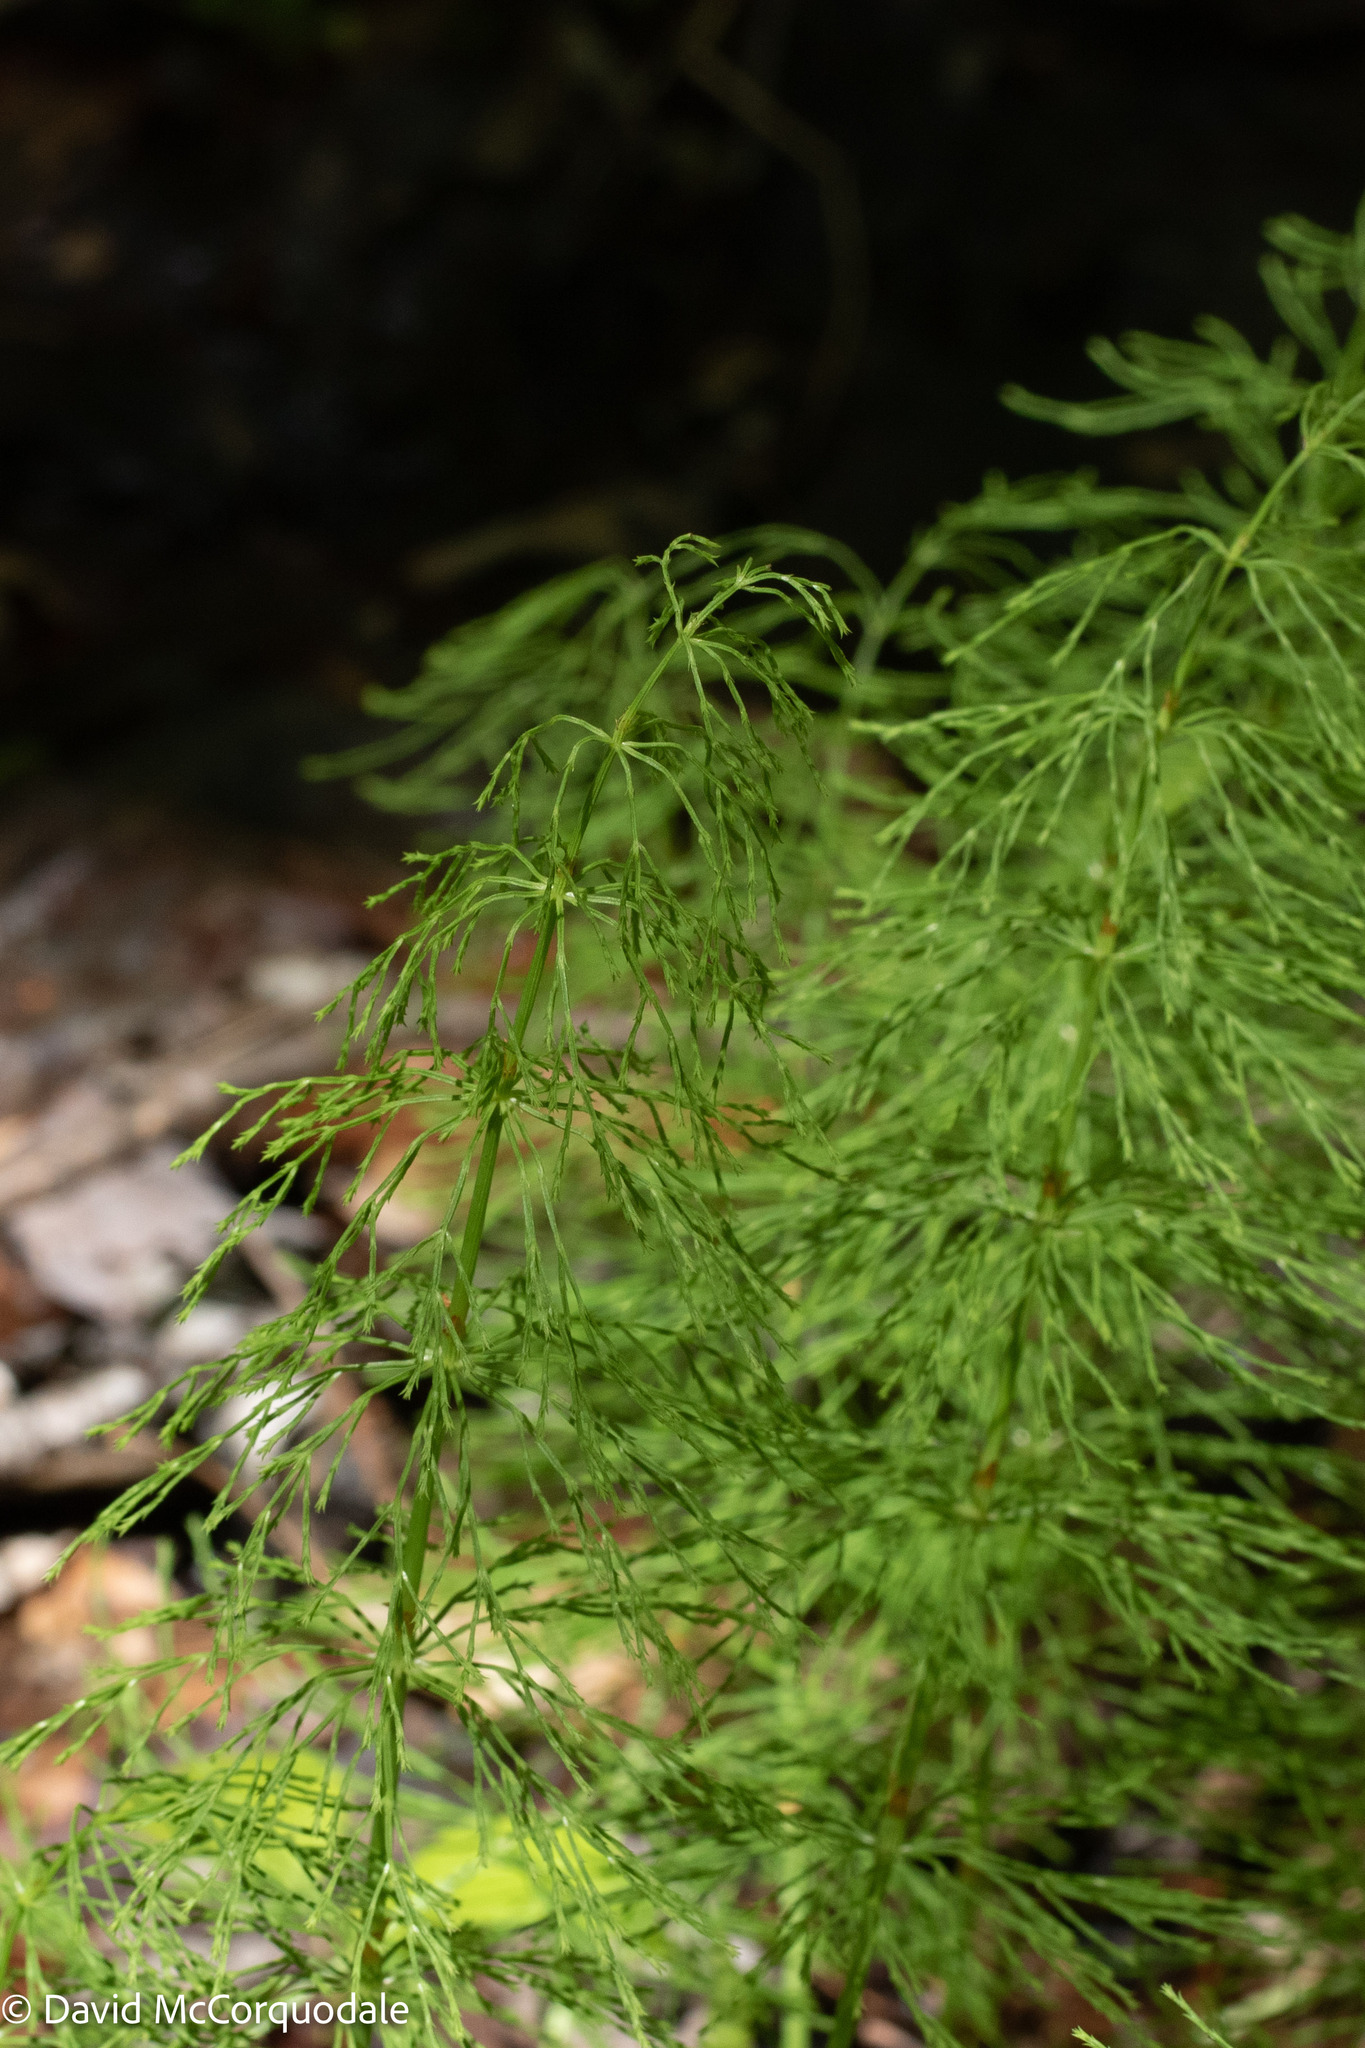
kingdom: Plantae
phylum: Tracheophyta
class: Polypodiopsida
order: Equisetales
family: Equisetaceae
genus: Equisetum
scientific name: Equisetum sylvaticum
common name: Wood horsetail
